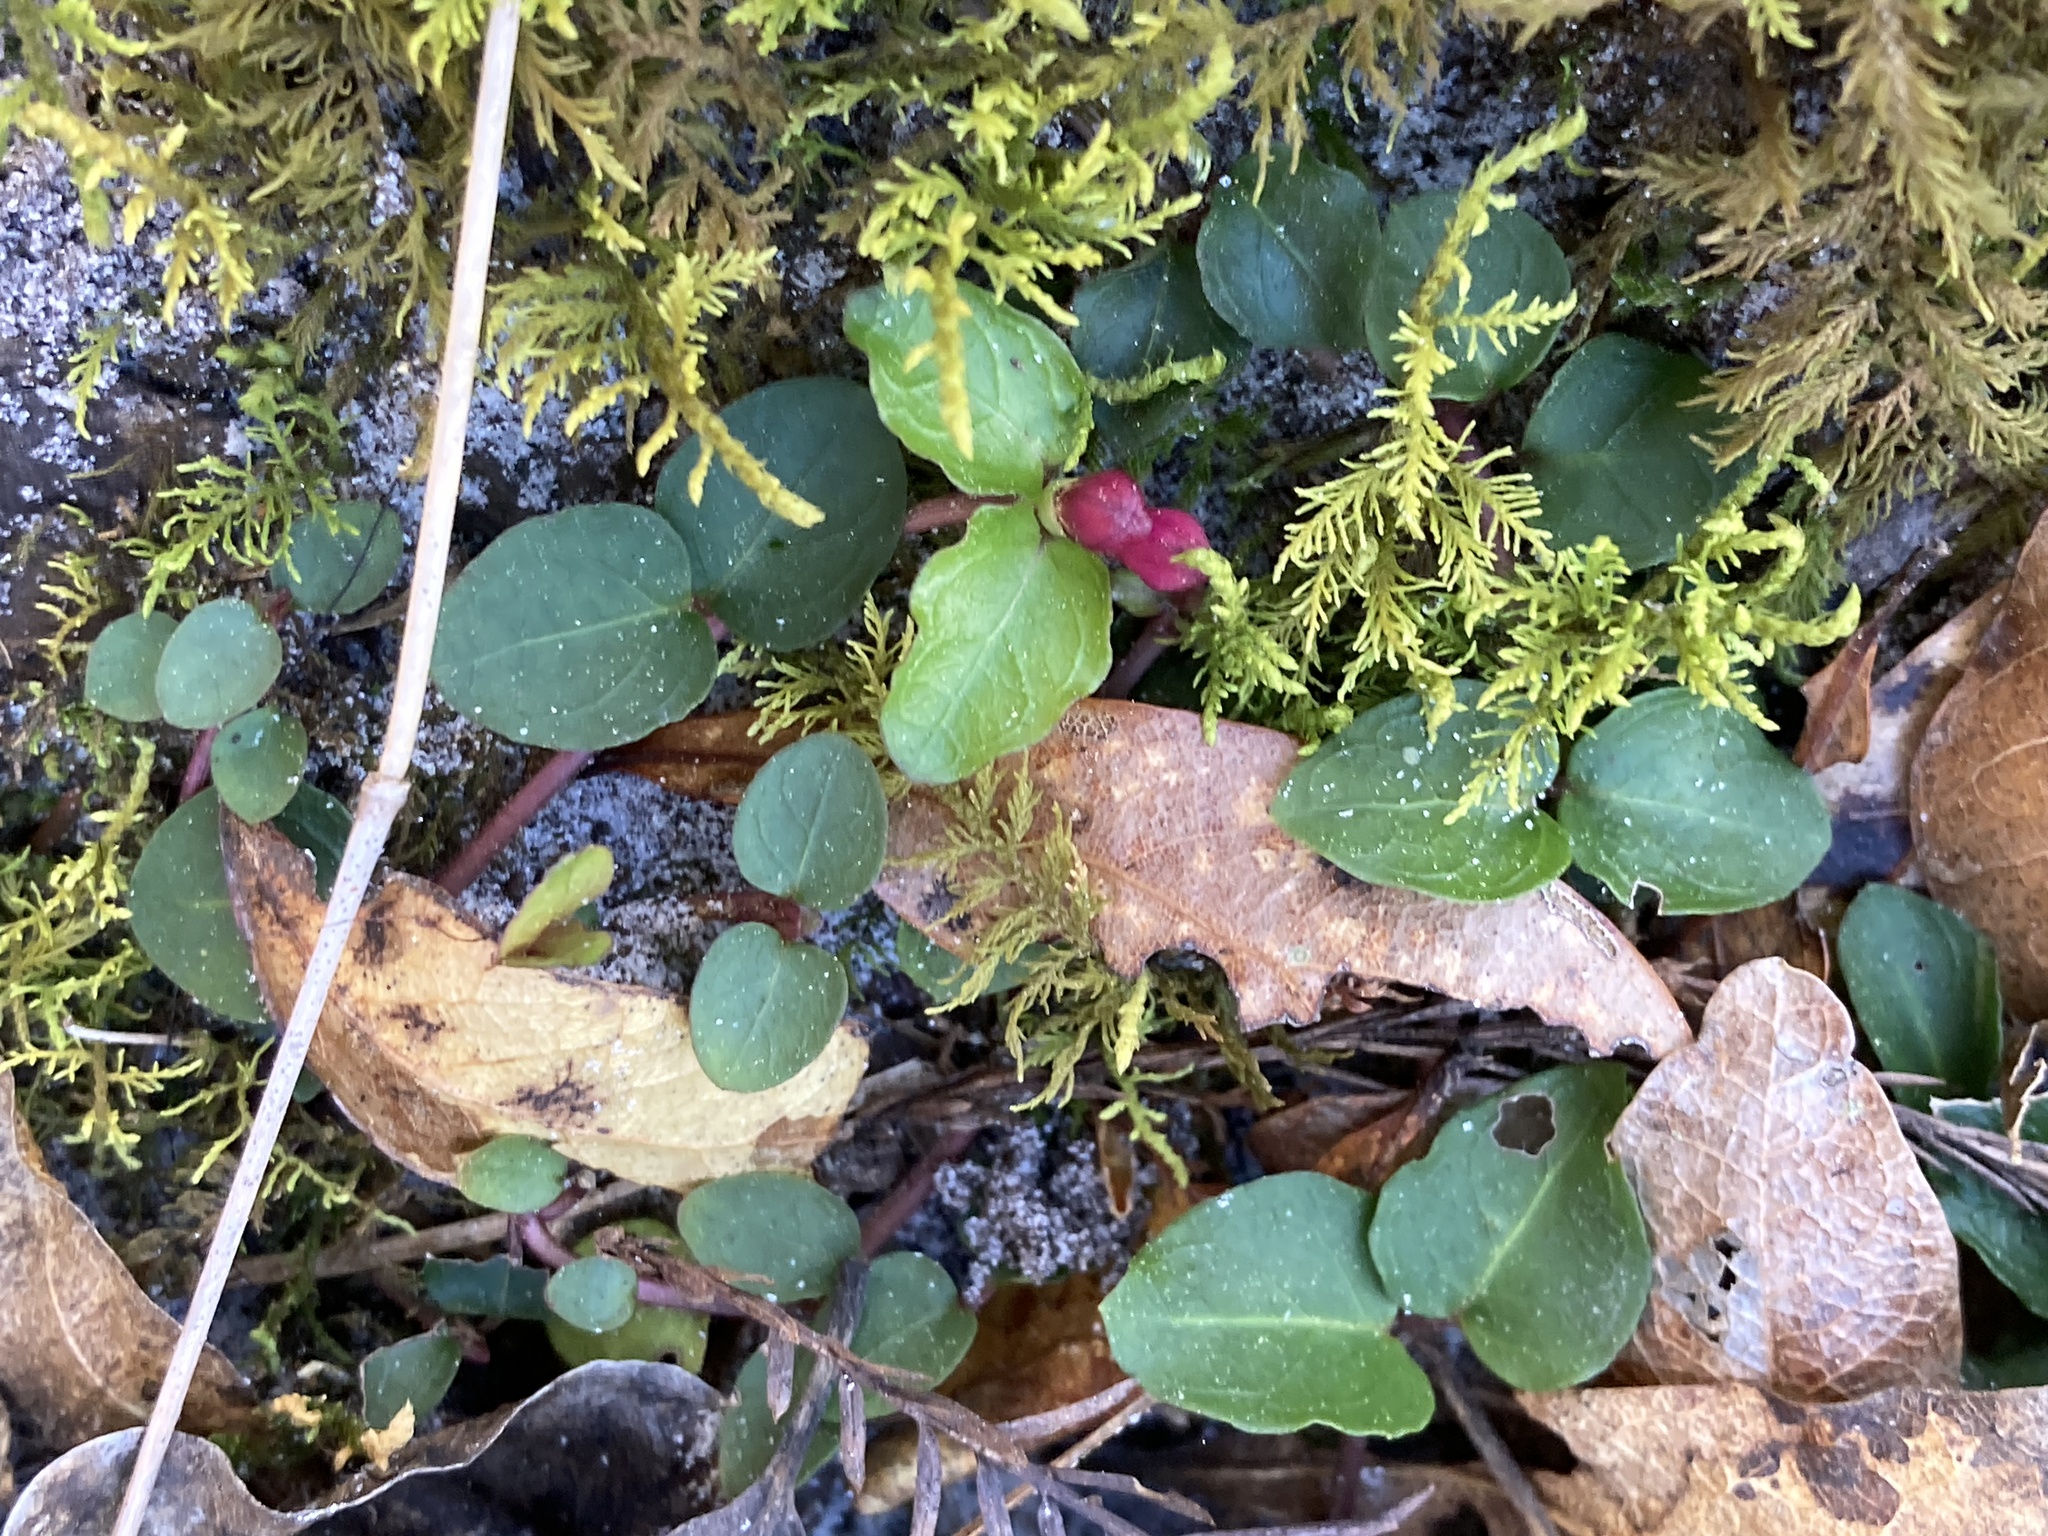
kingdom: Plantae
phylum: Tracheophyta
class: Magnoliopsida
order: Gentianales
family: Rubiaceae
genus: Mitchella
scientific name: Mitchella repens
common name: Partridge-berry
